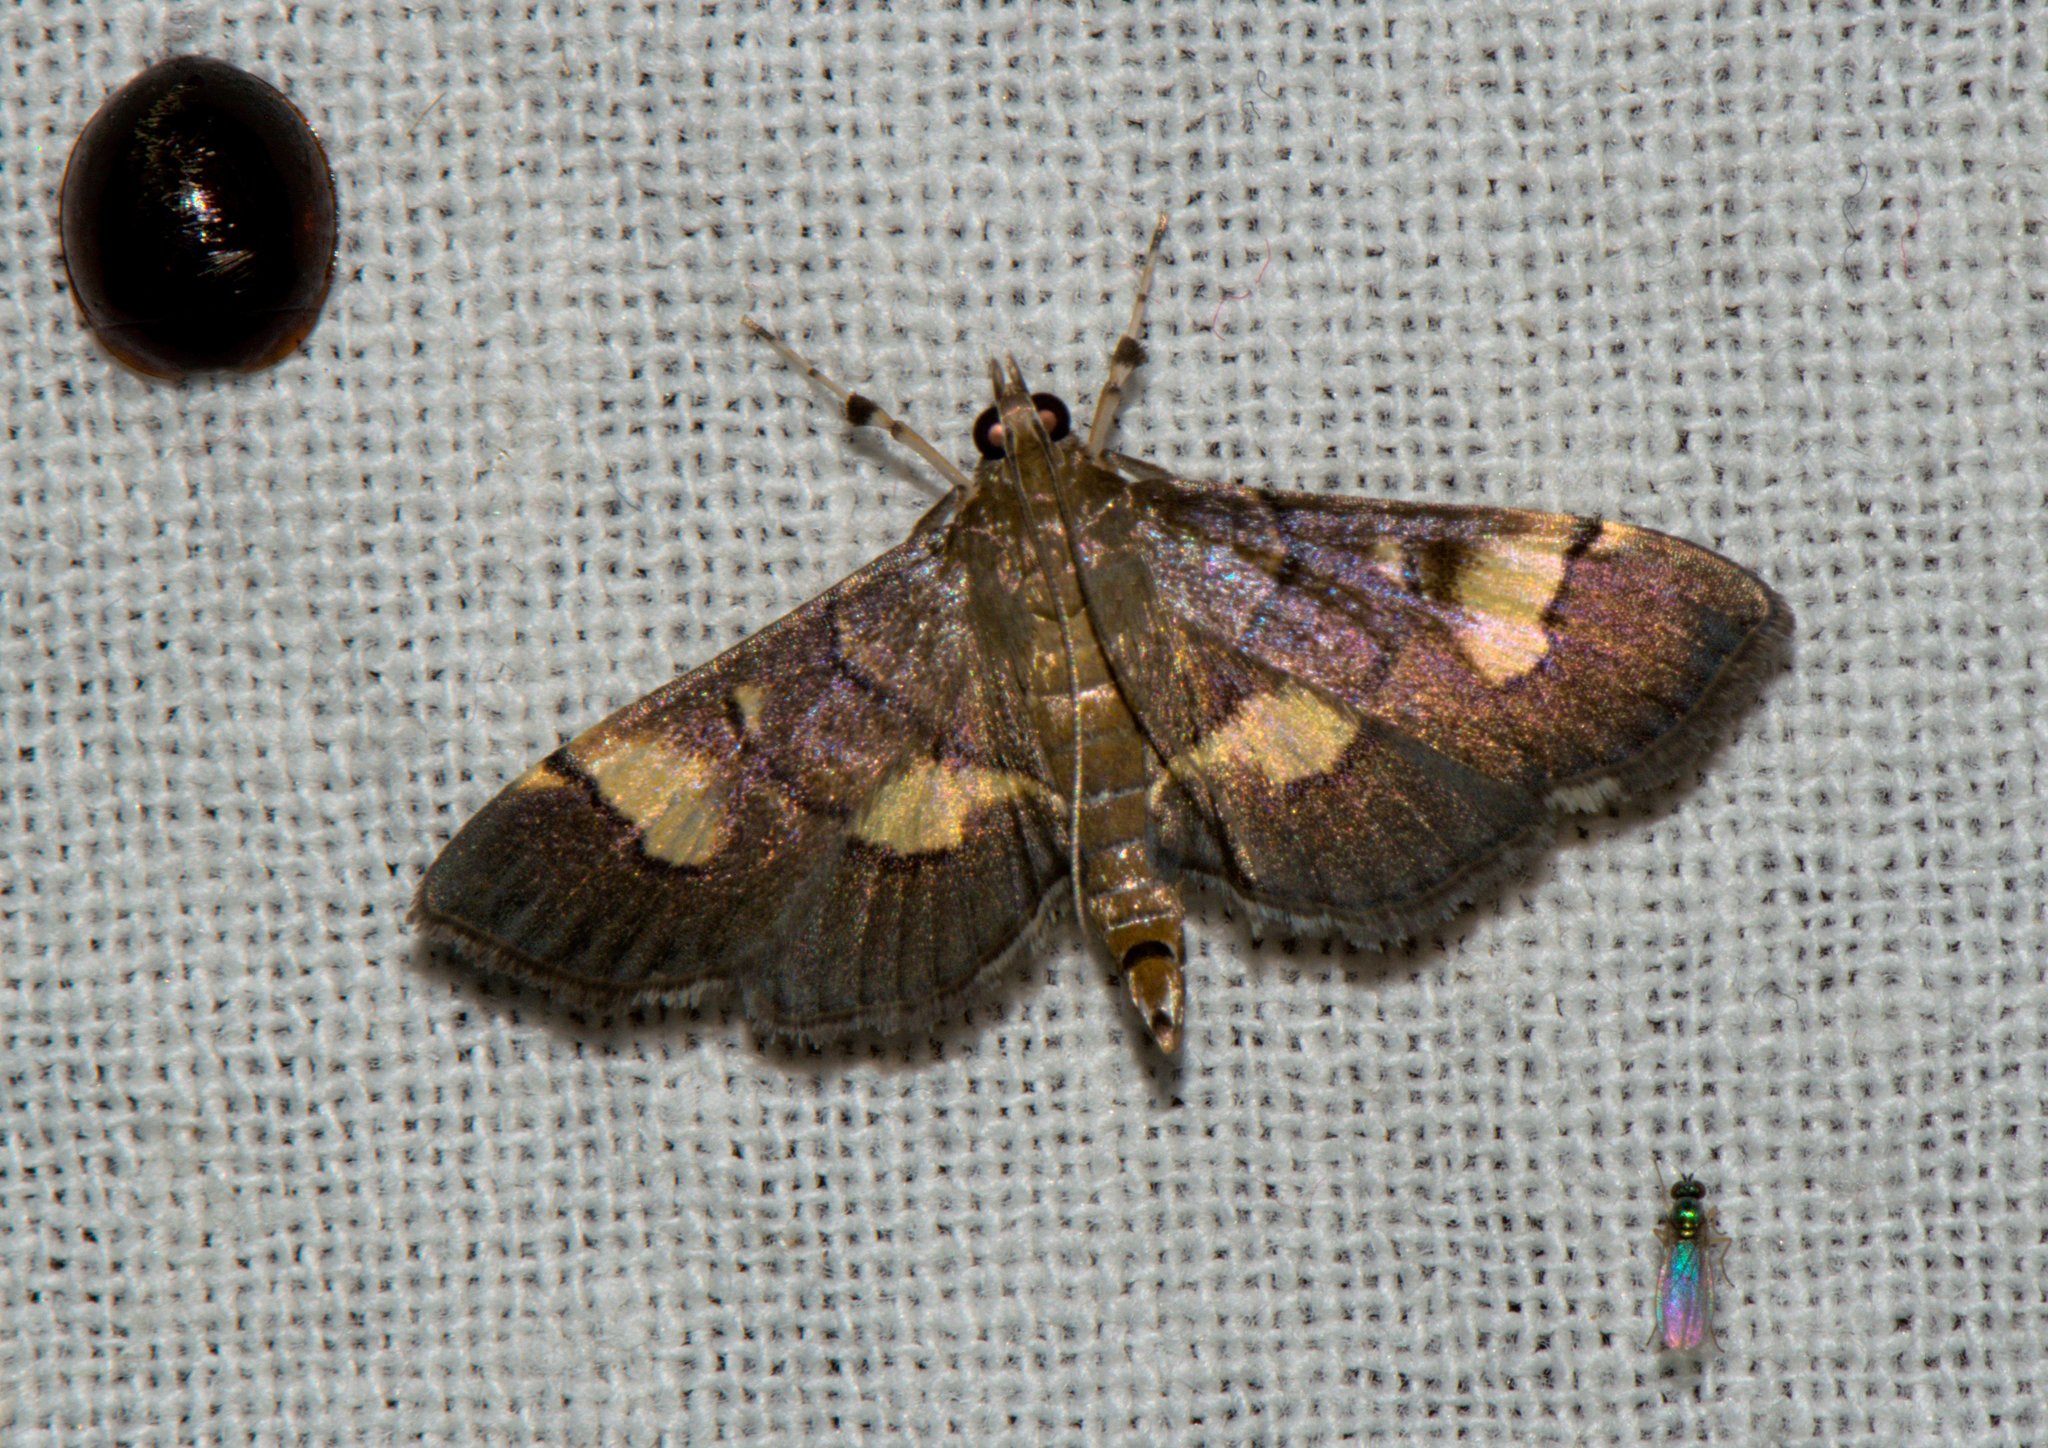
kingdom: Animalia
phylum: Arthropoda
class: Insecta
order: Lepidoptera
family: Crambidae
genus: Syngamia
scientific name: Syngamia falsidicalis
